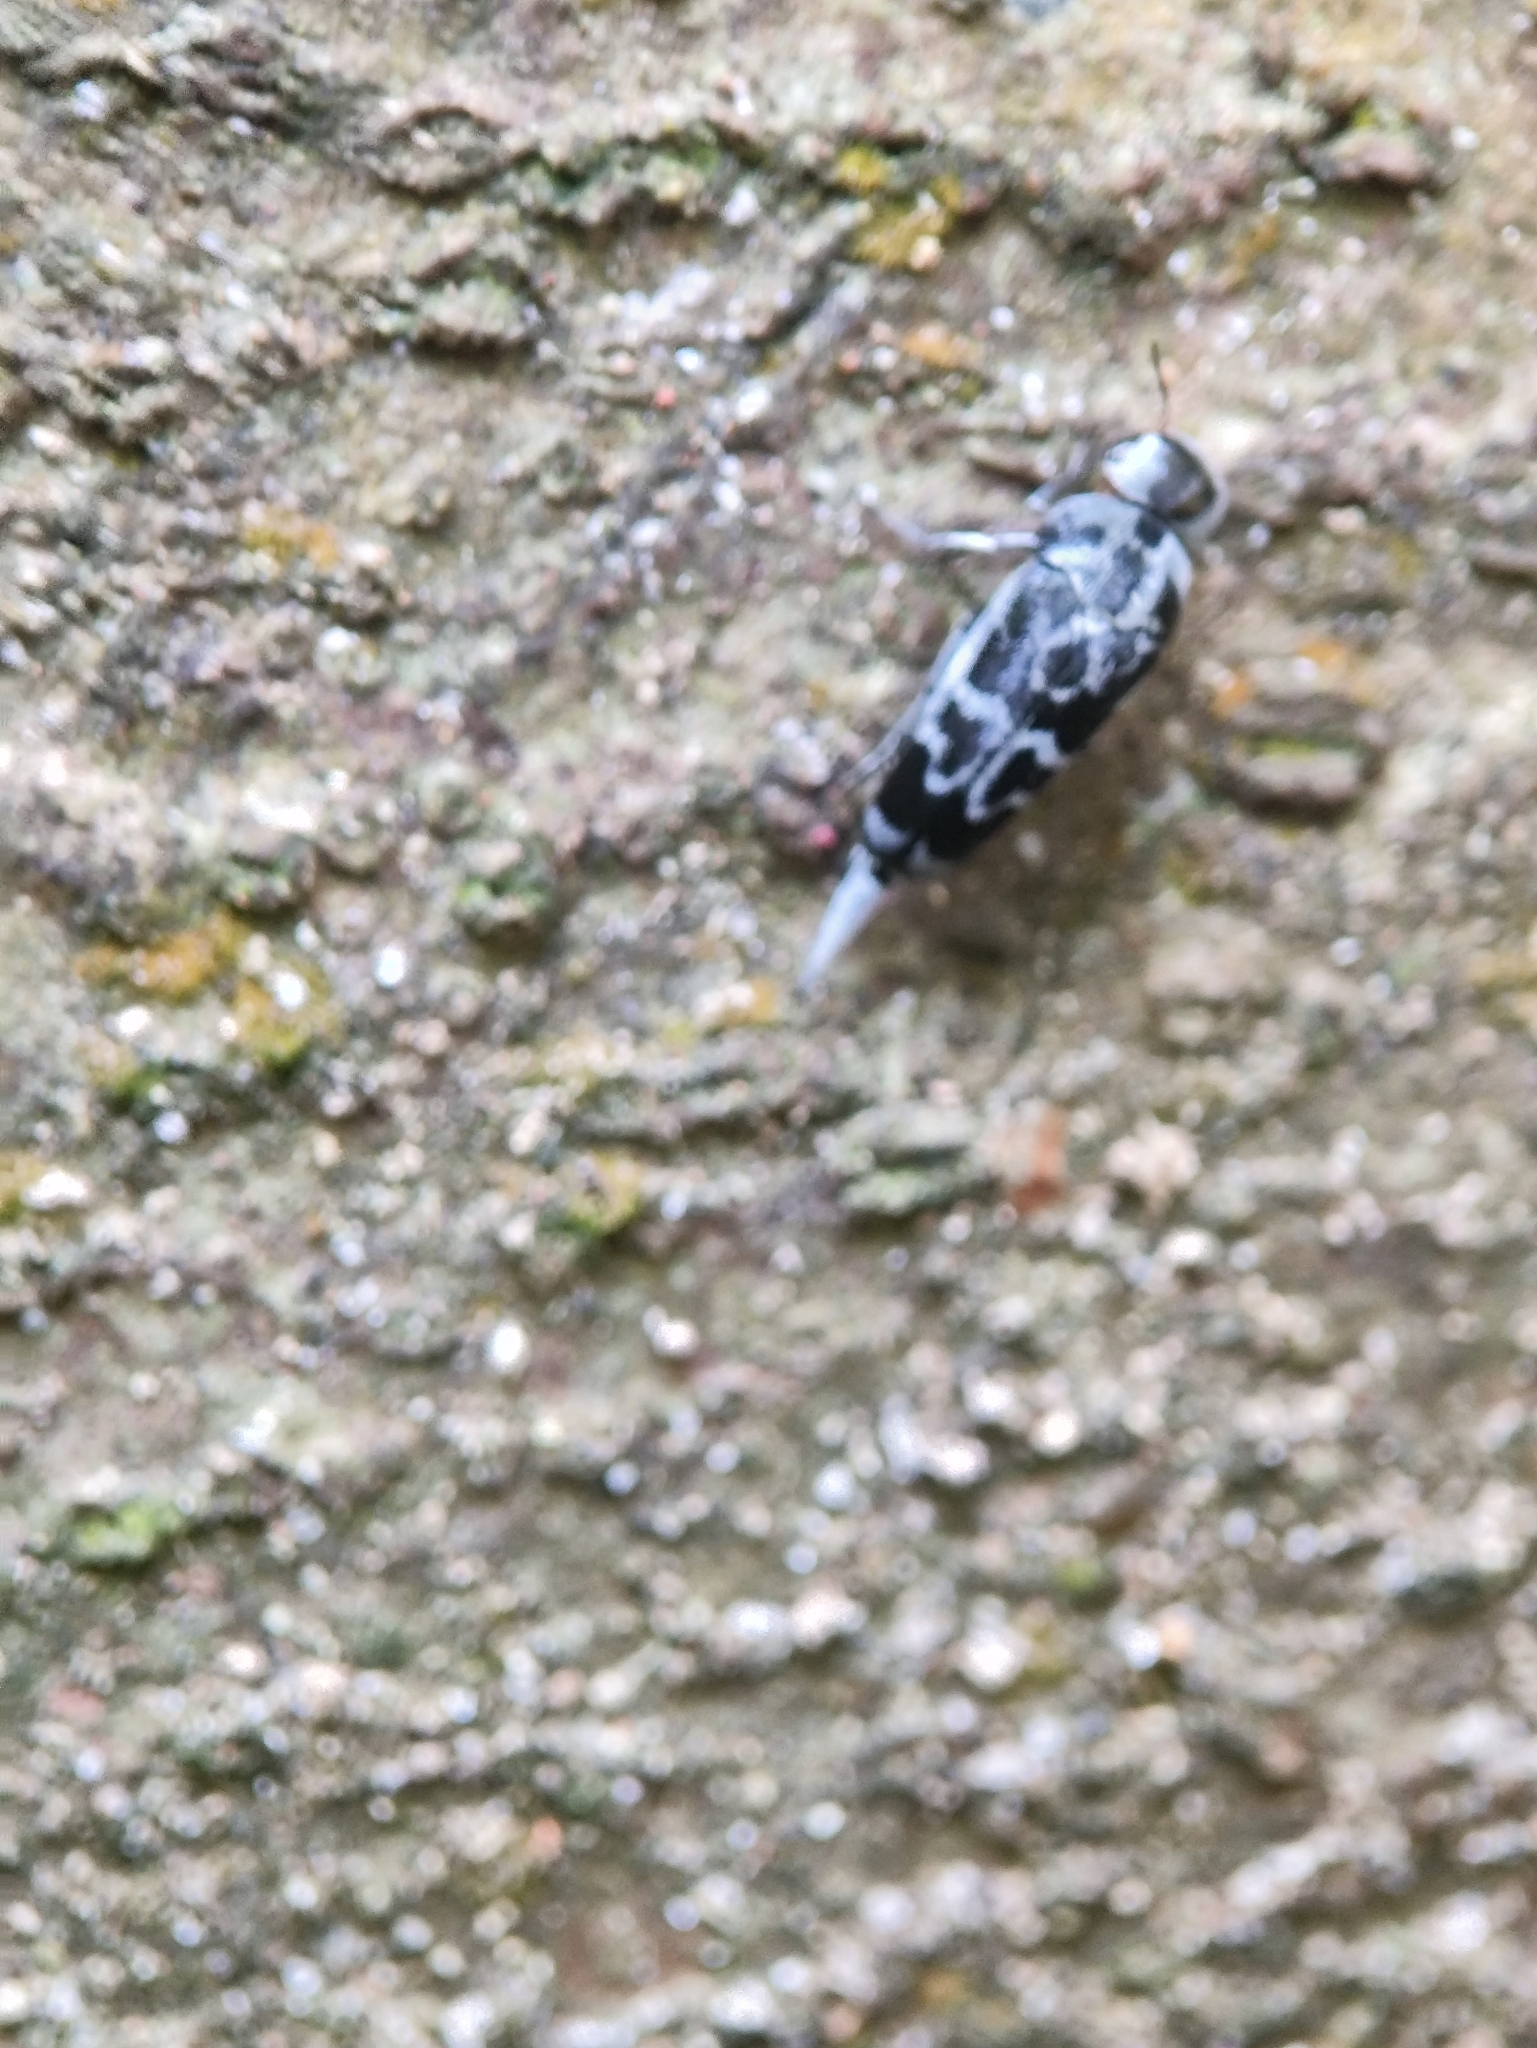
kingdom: Animalia
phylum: Arthropoda
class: Insecta
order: Coleoptera
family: Mordellidae
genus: Glipa
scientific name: Glipa
